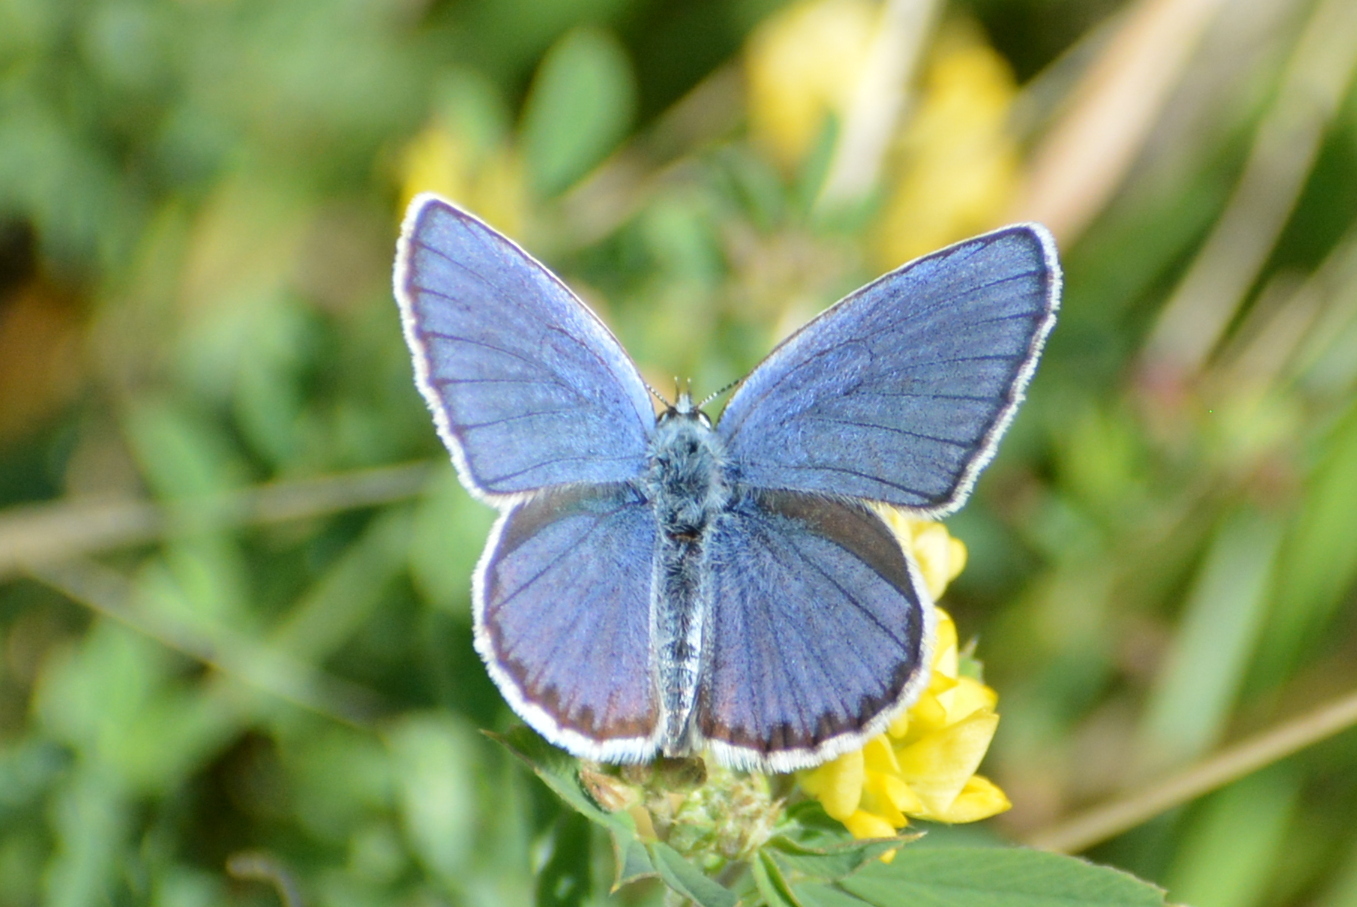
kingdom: Animalia
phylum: Arthropoda
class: Insecta
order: Lepidoptera
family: Lycaenidae
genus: Plebejus
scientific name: Plebejus argyrognomon
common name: Reverdin's blue
